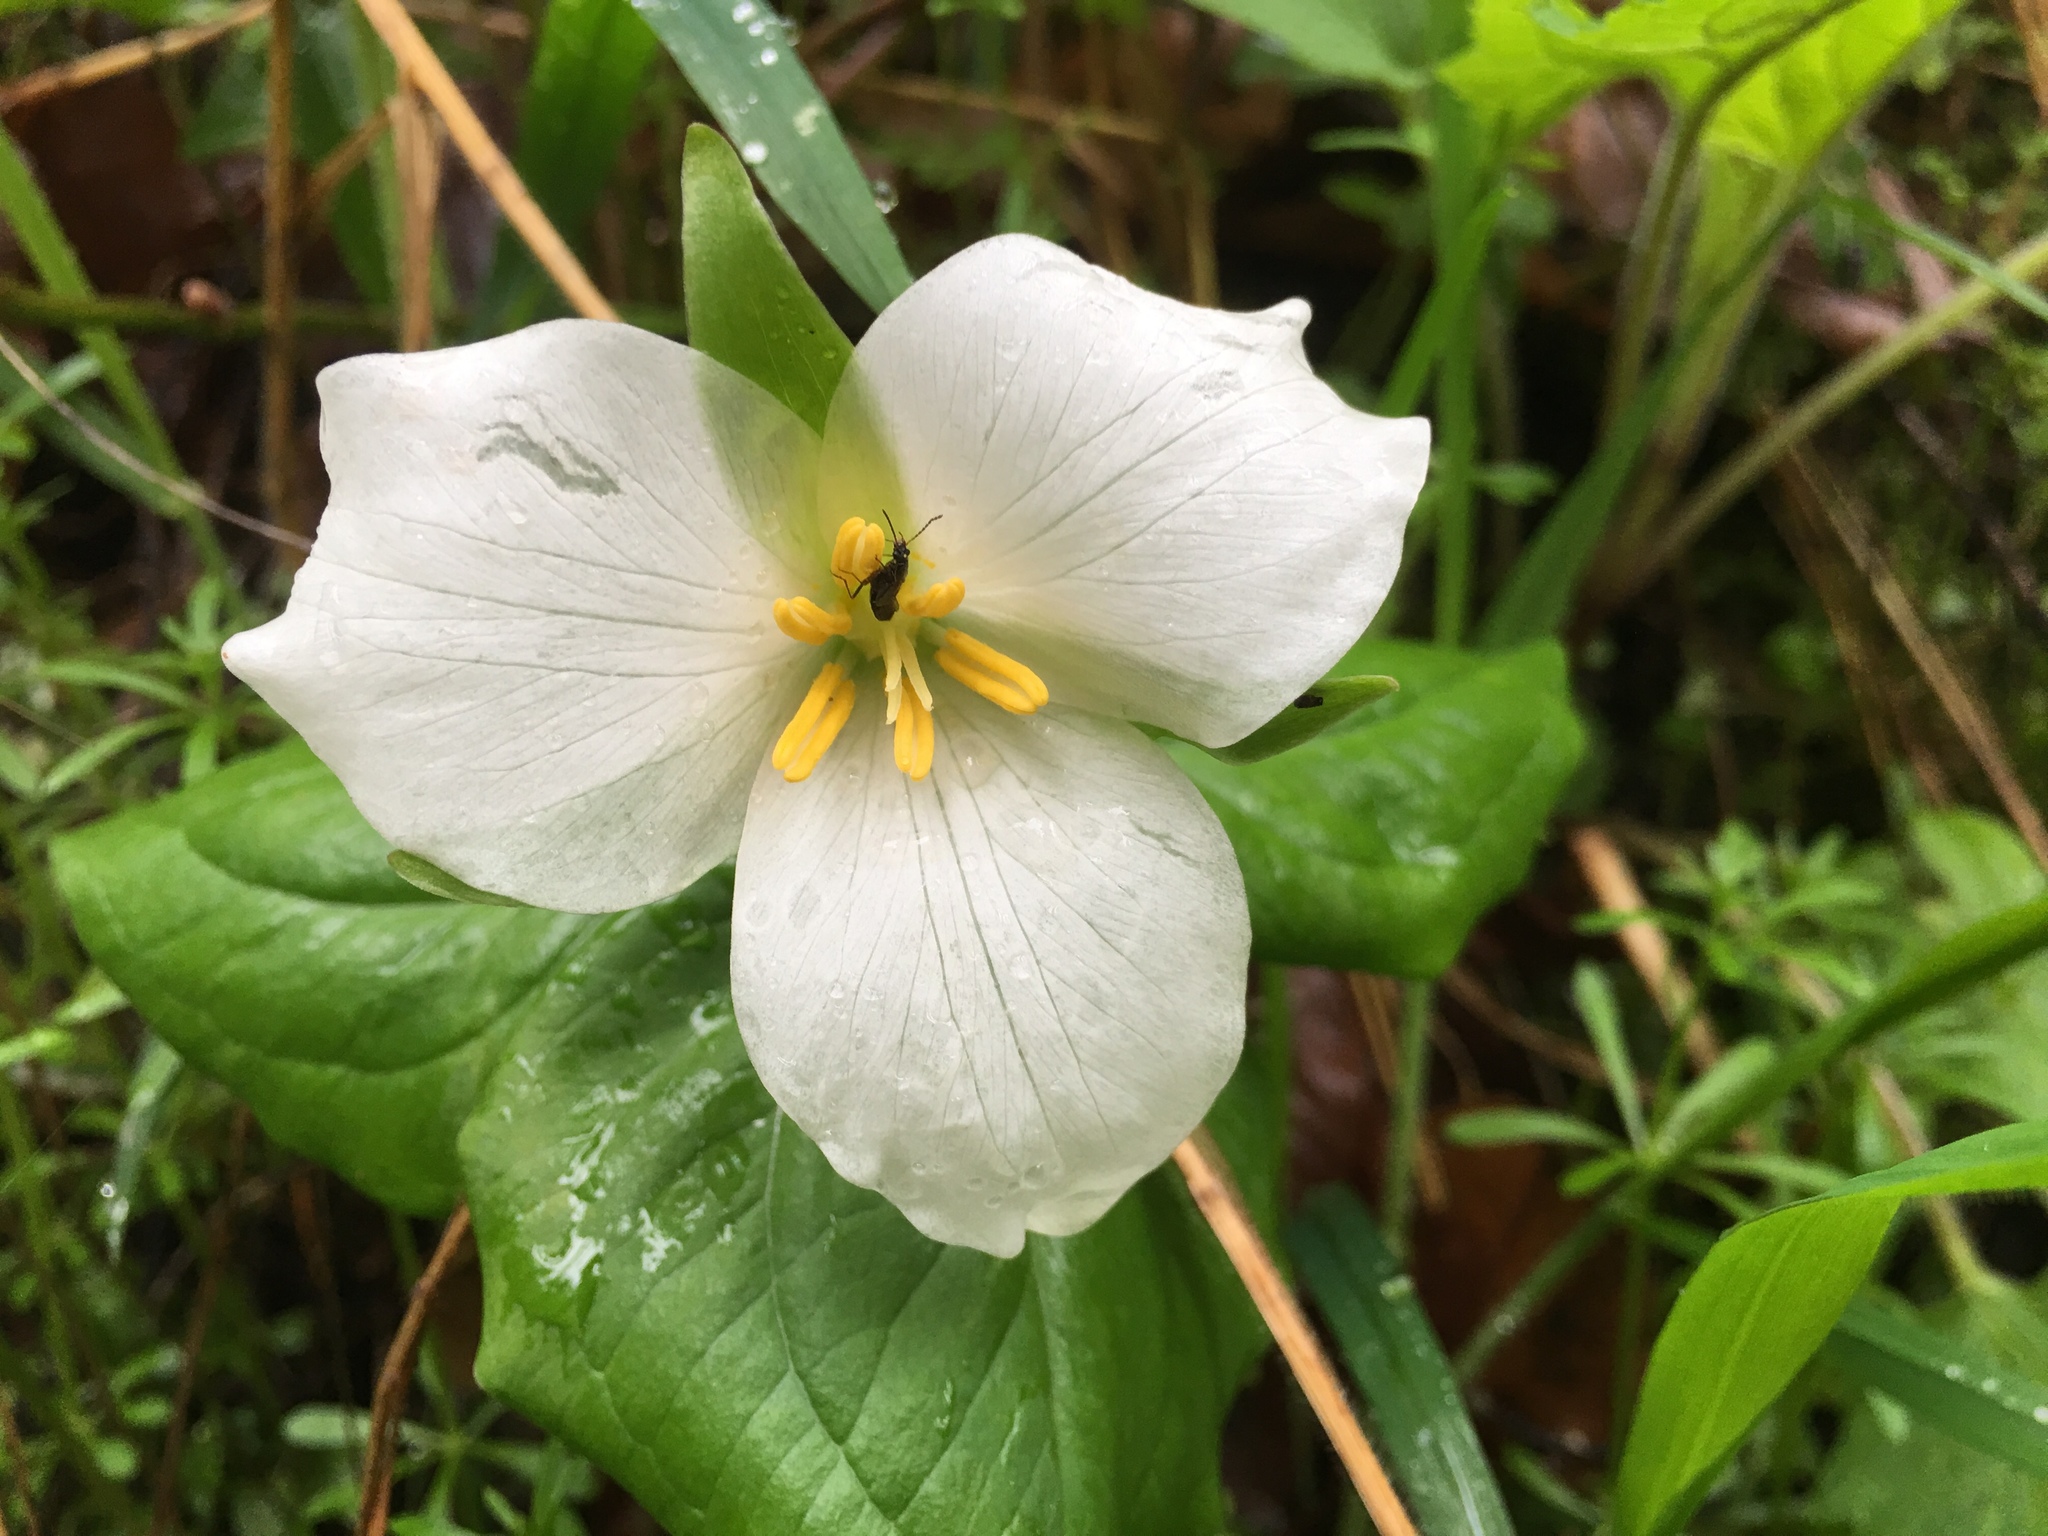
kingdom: Plantae
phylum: Tracheophyta
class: Liliopsida
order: Liliales
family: Melanthiaceae
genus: Trillium
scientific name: Trillium ovatum
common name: Pacific trillium
